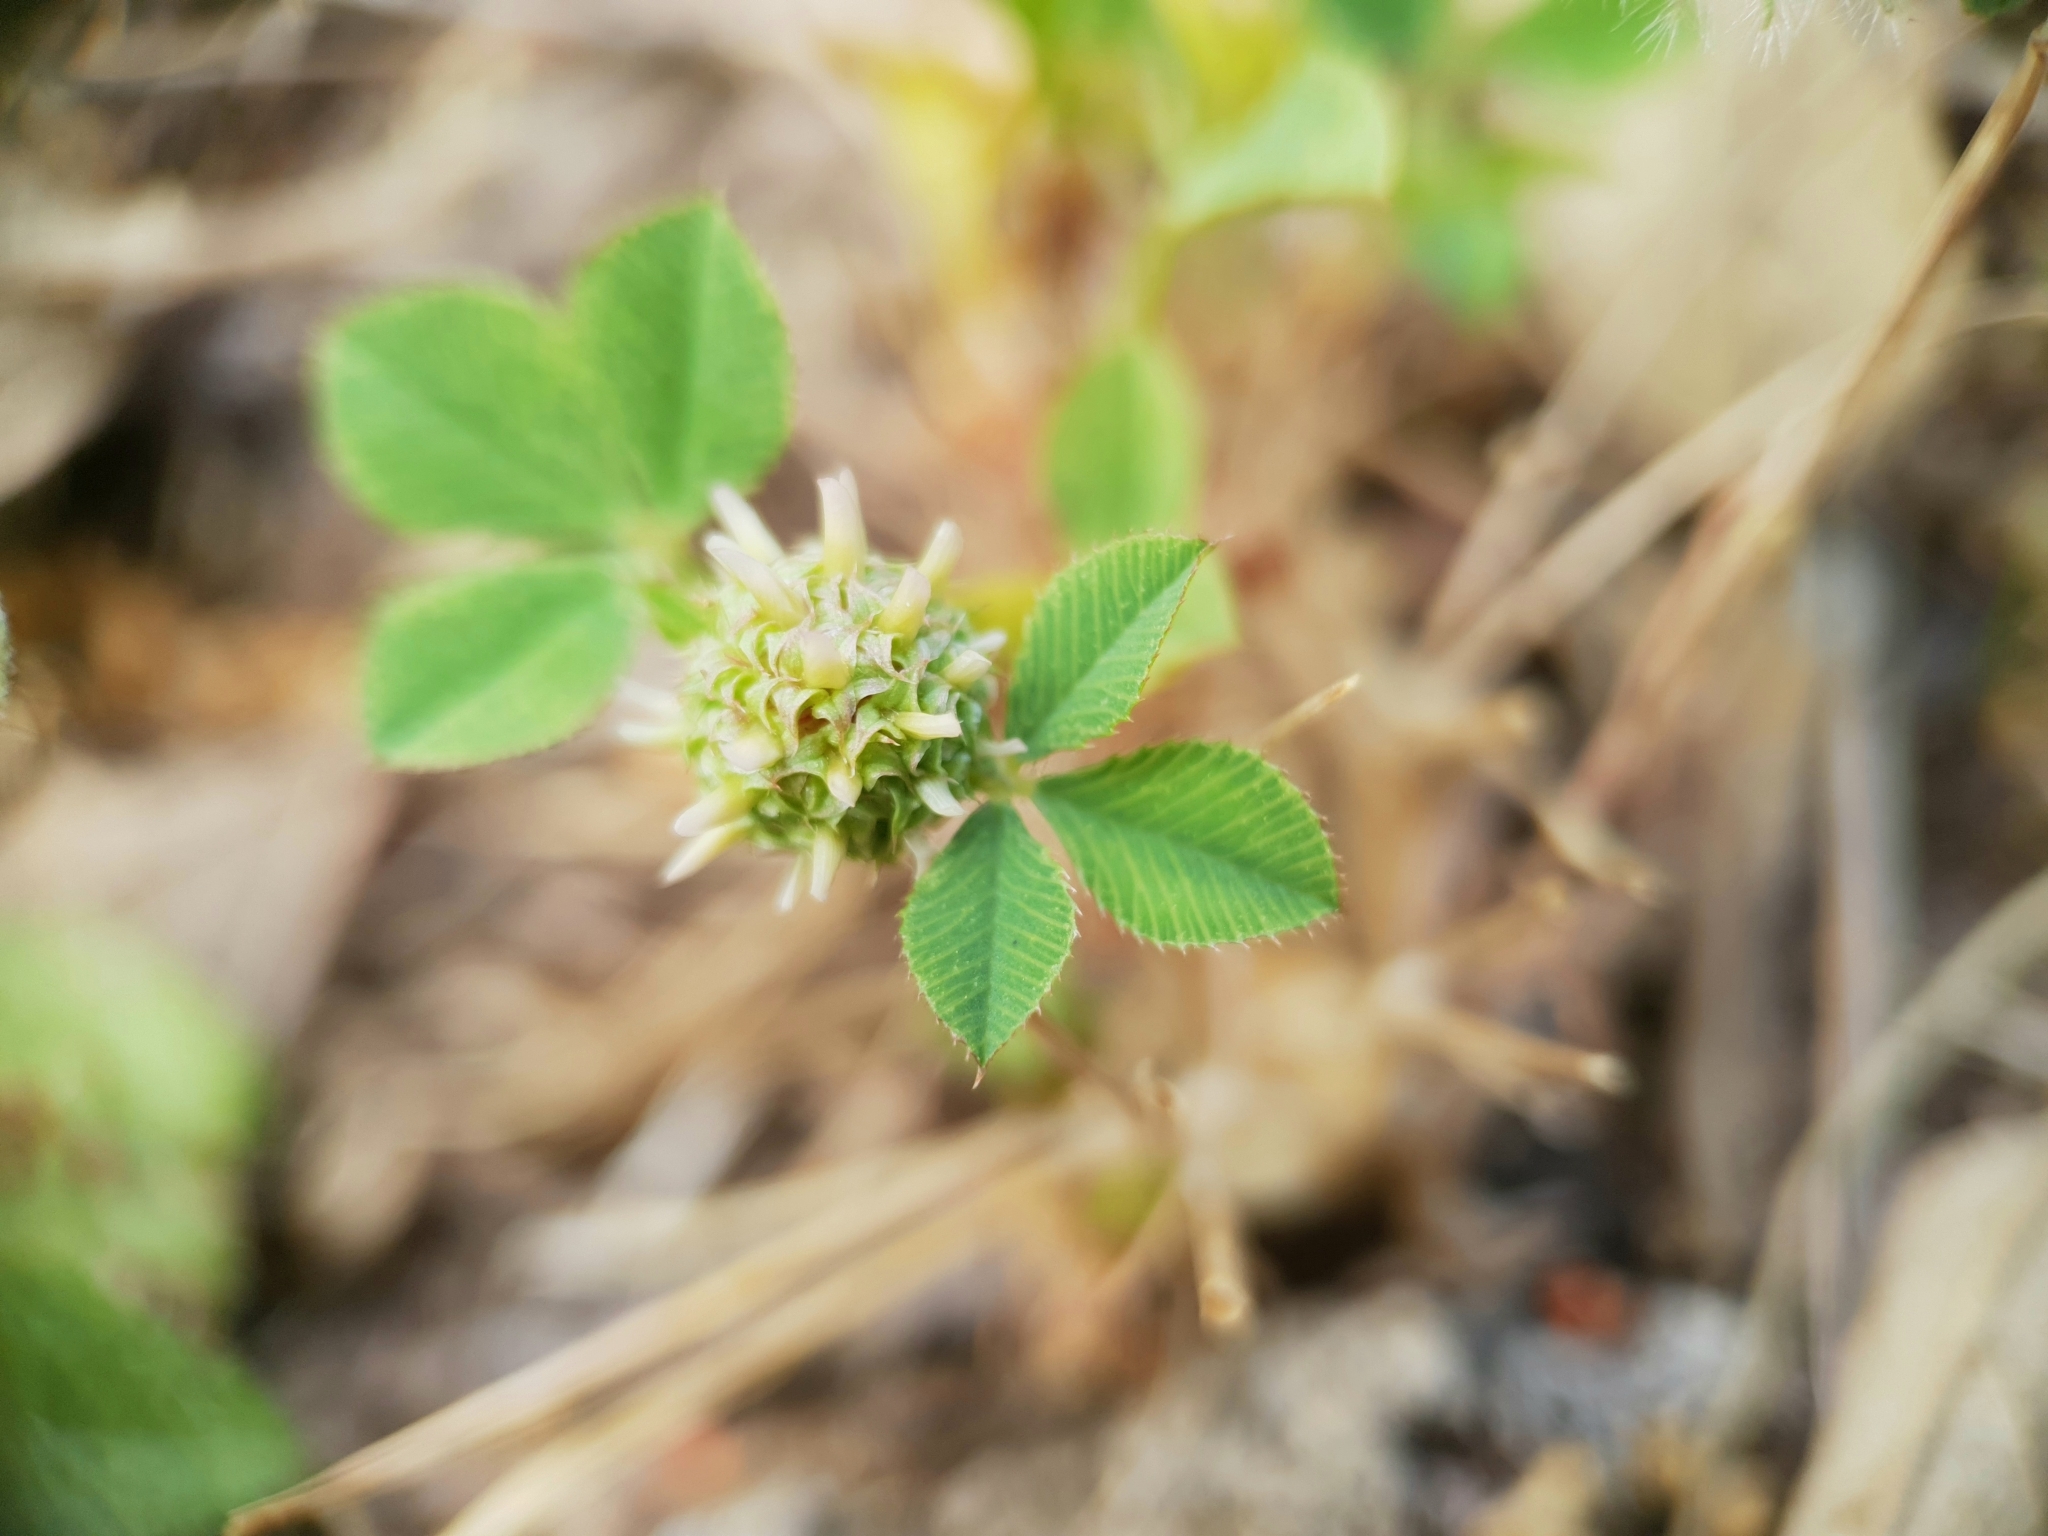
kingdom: Plantae
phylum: Tracheophyta
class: Magnoliopsida
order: Fabales
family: Fabaceae
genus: Trifolium
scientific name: Trifolium glomeratum
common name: Clustered clover
